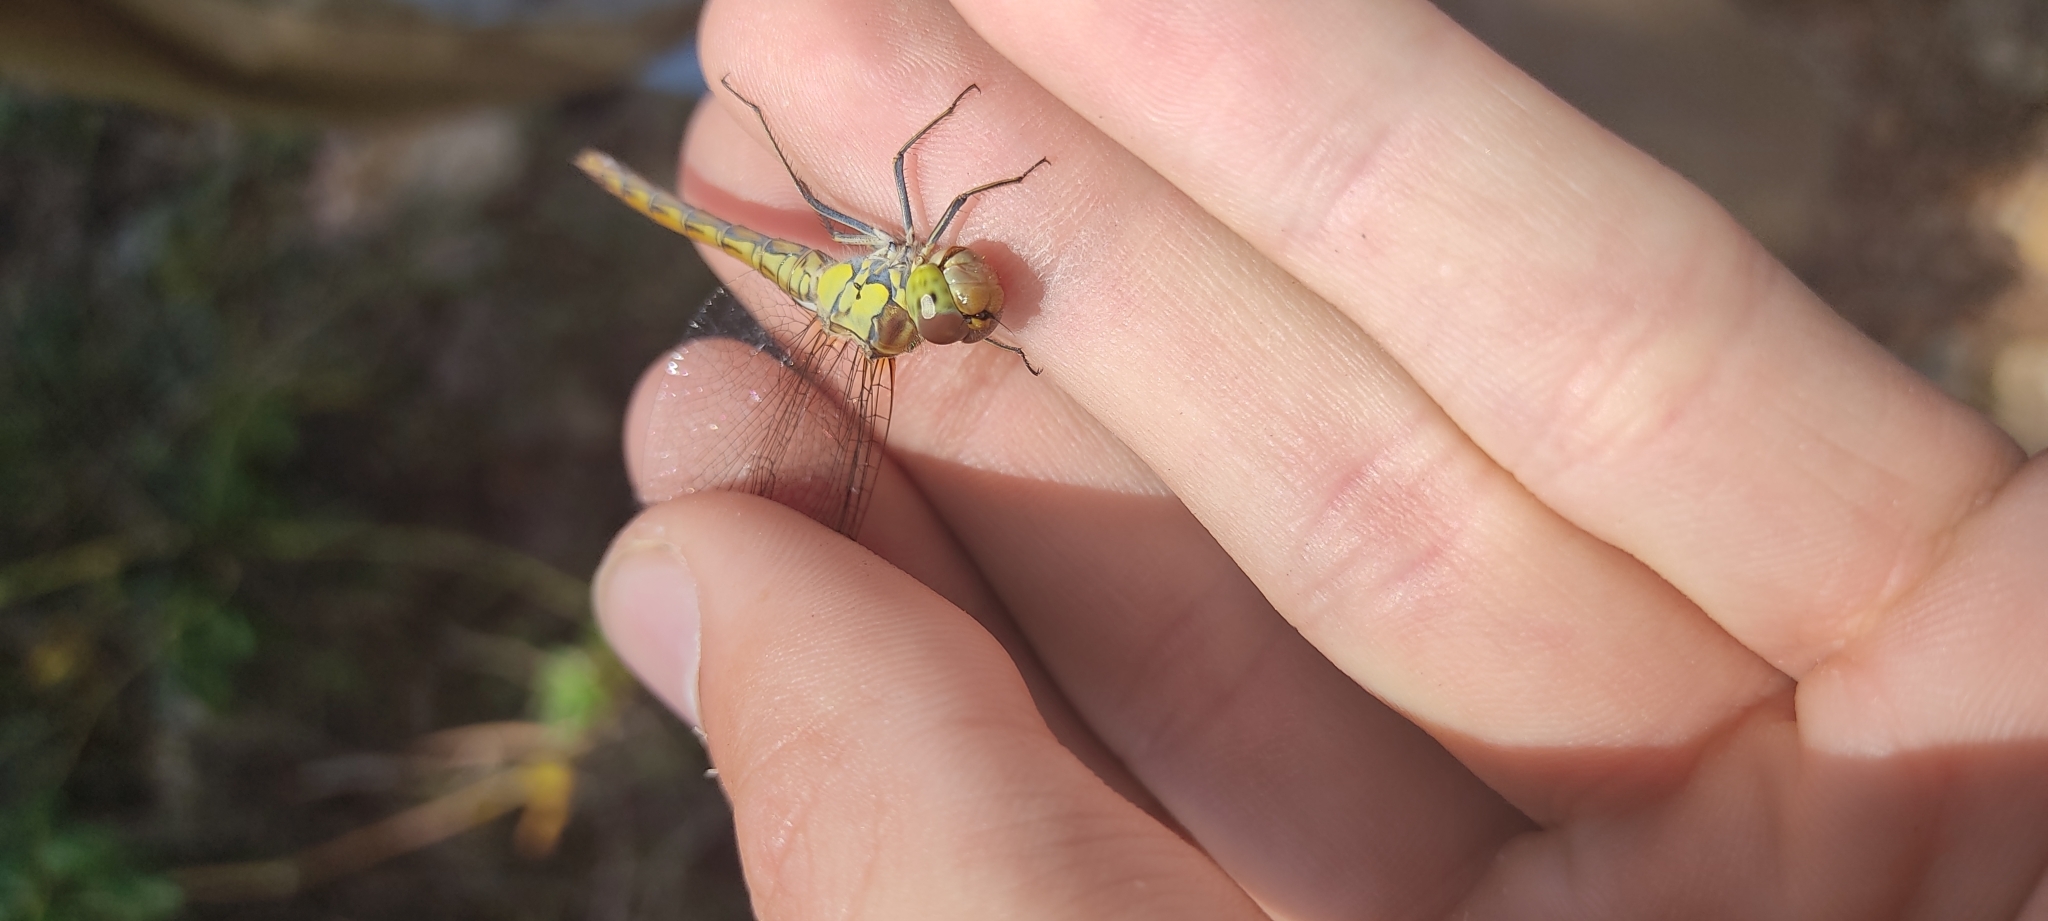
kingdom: Animalia
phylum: Arthropoda
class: Insecta
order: Odonata
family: Libellulidae
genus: Sympetrum
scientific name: Sympetrum striolatum
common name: Common darter
